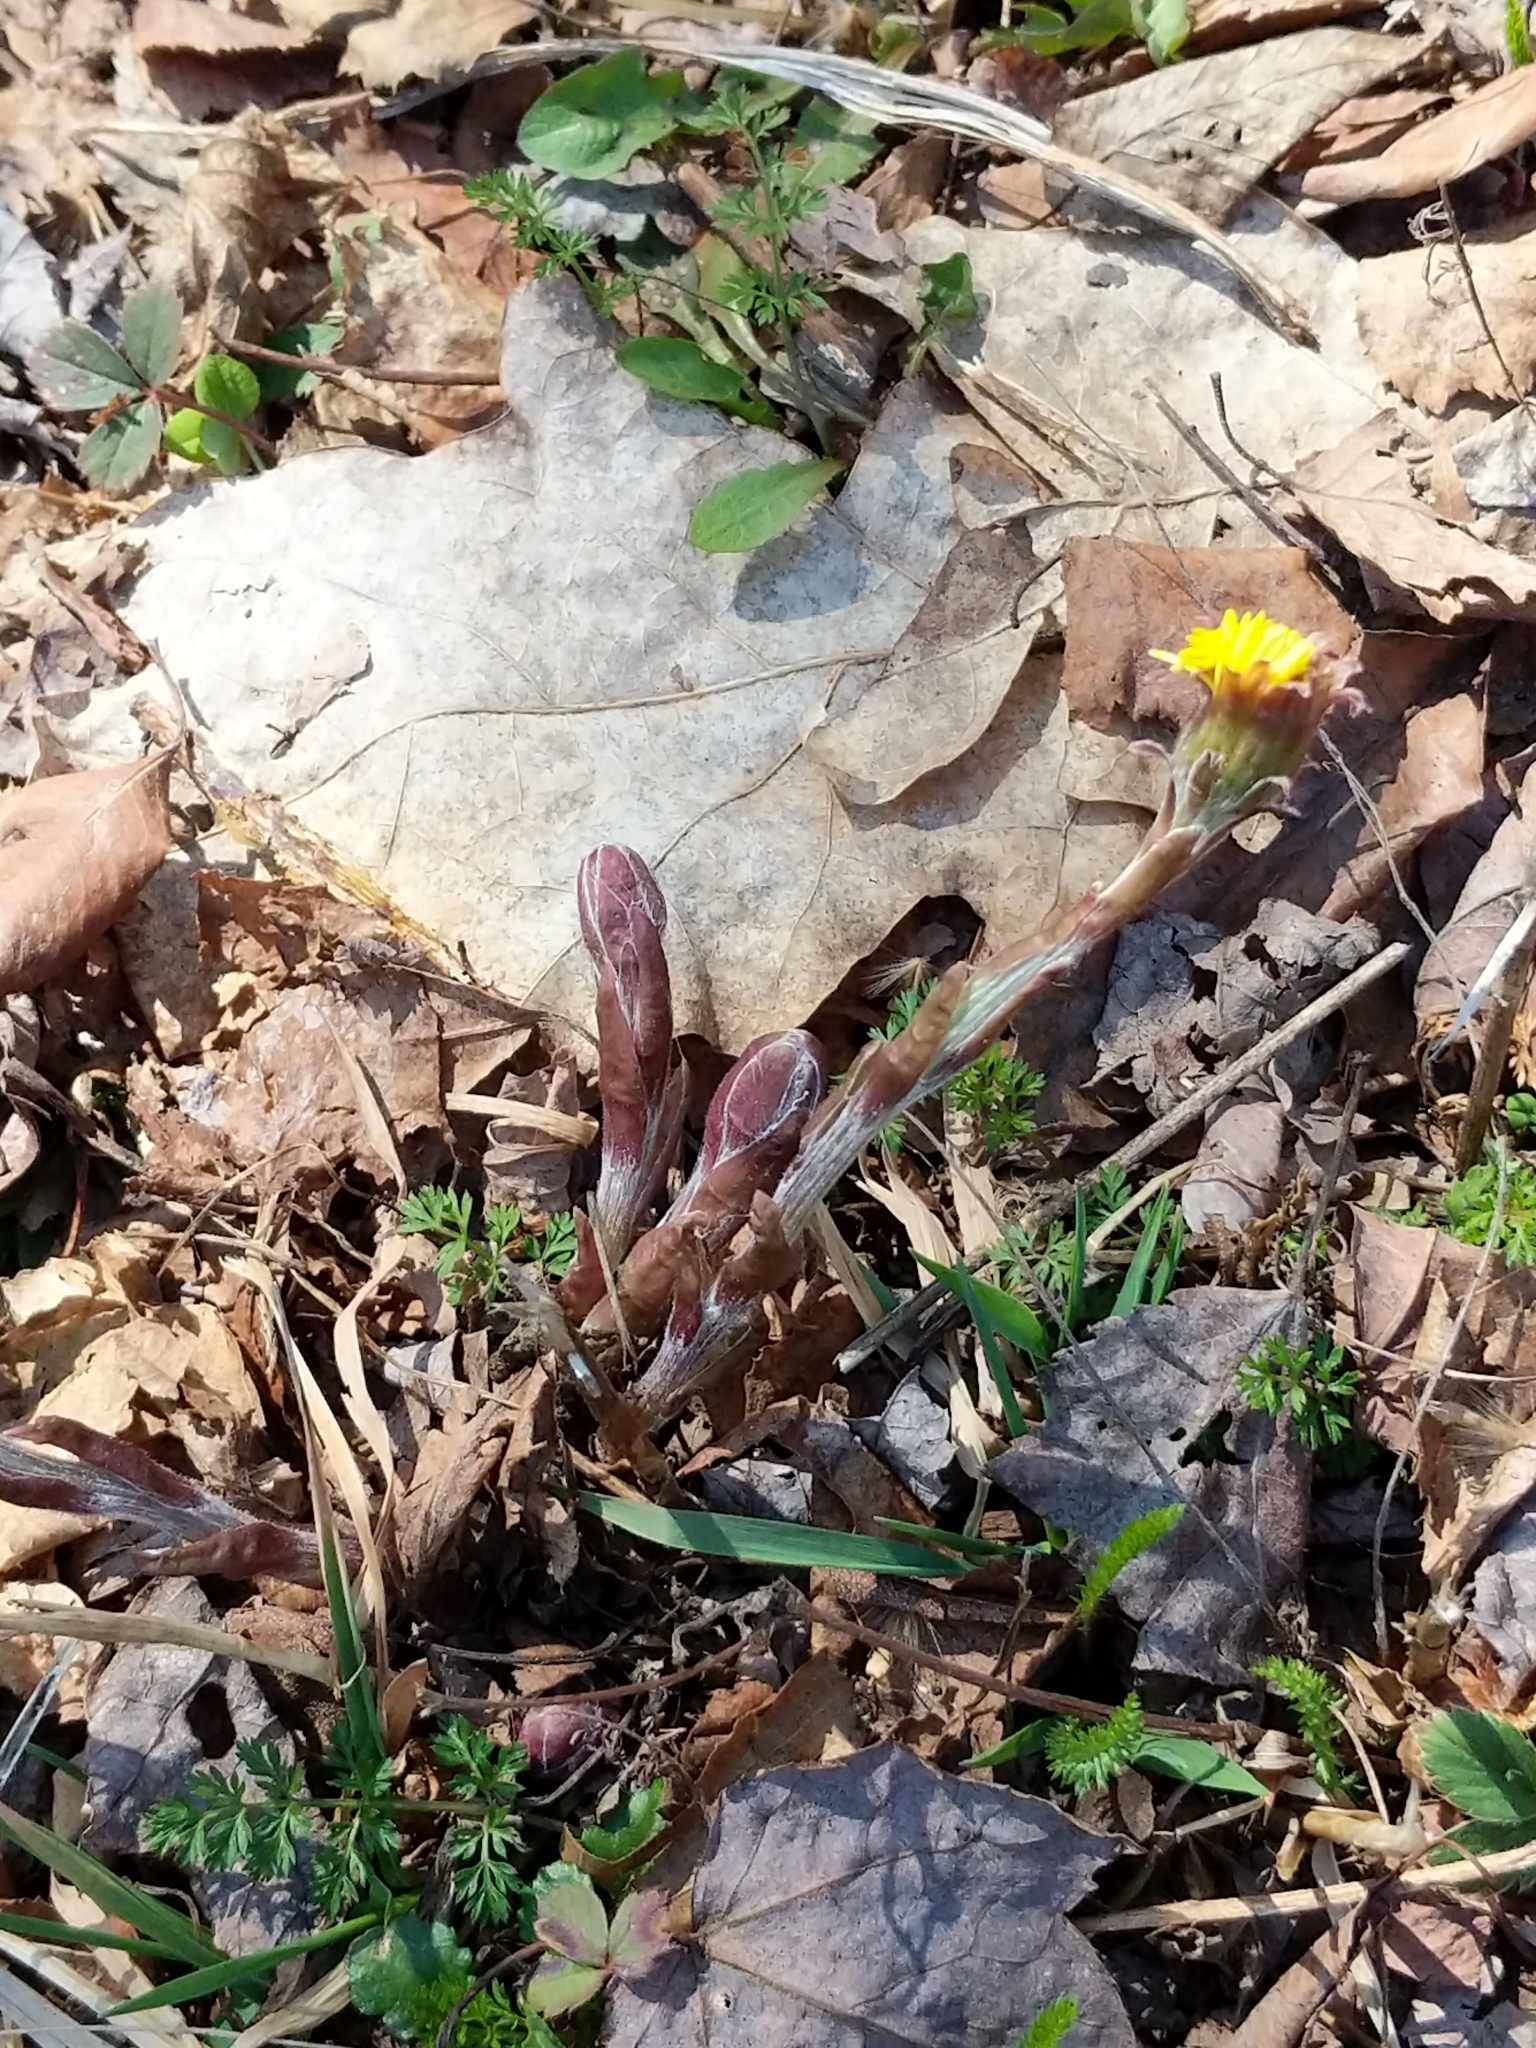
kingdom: Plantae
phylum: Tracheophyta
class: Magnoliopsida
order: Asterales
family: Asteraceae
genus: Tussilago
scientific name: Tussilago farfara
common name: Coltsfoot
